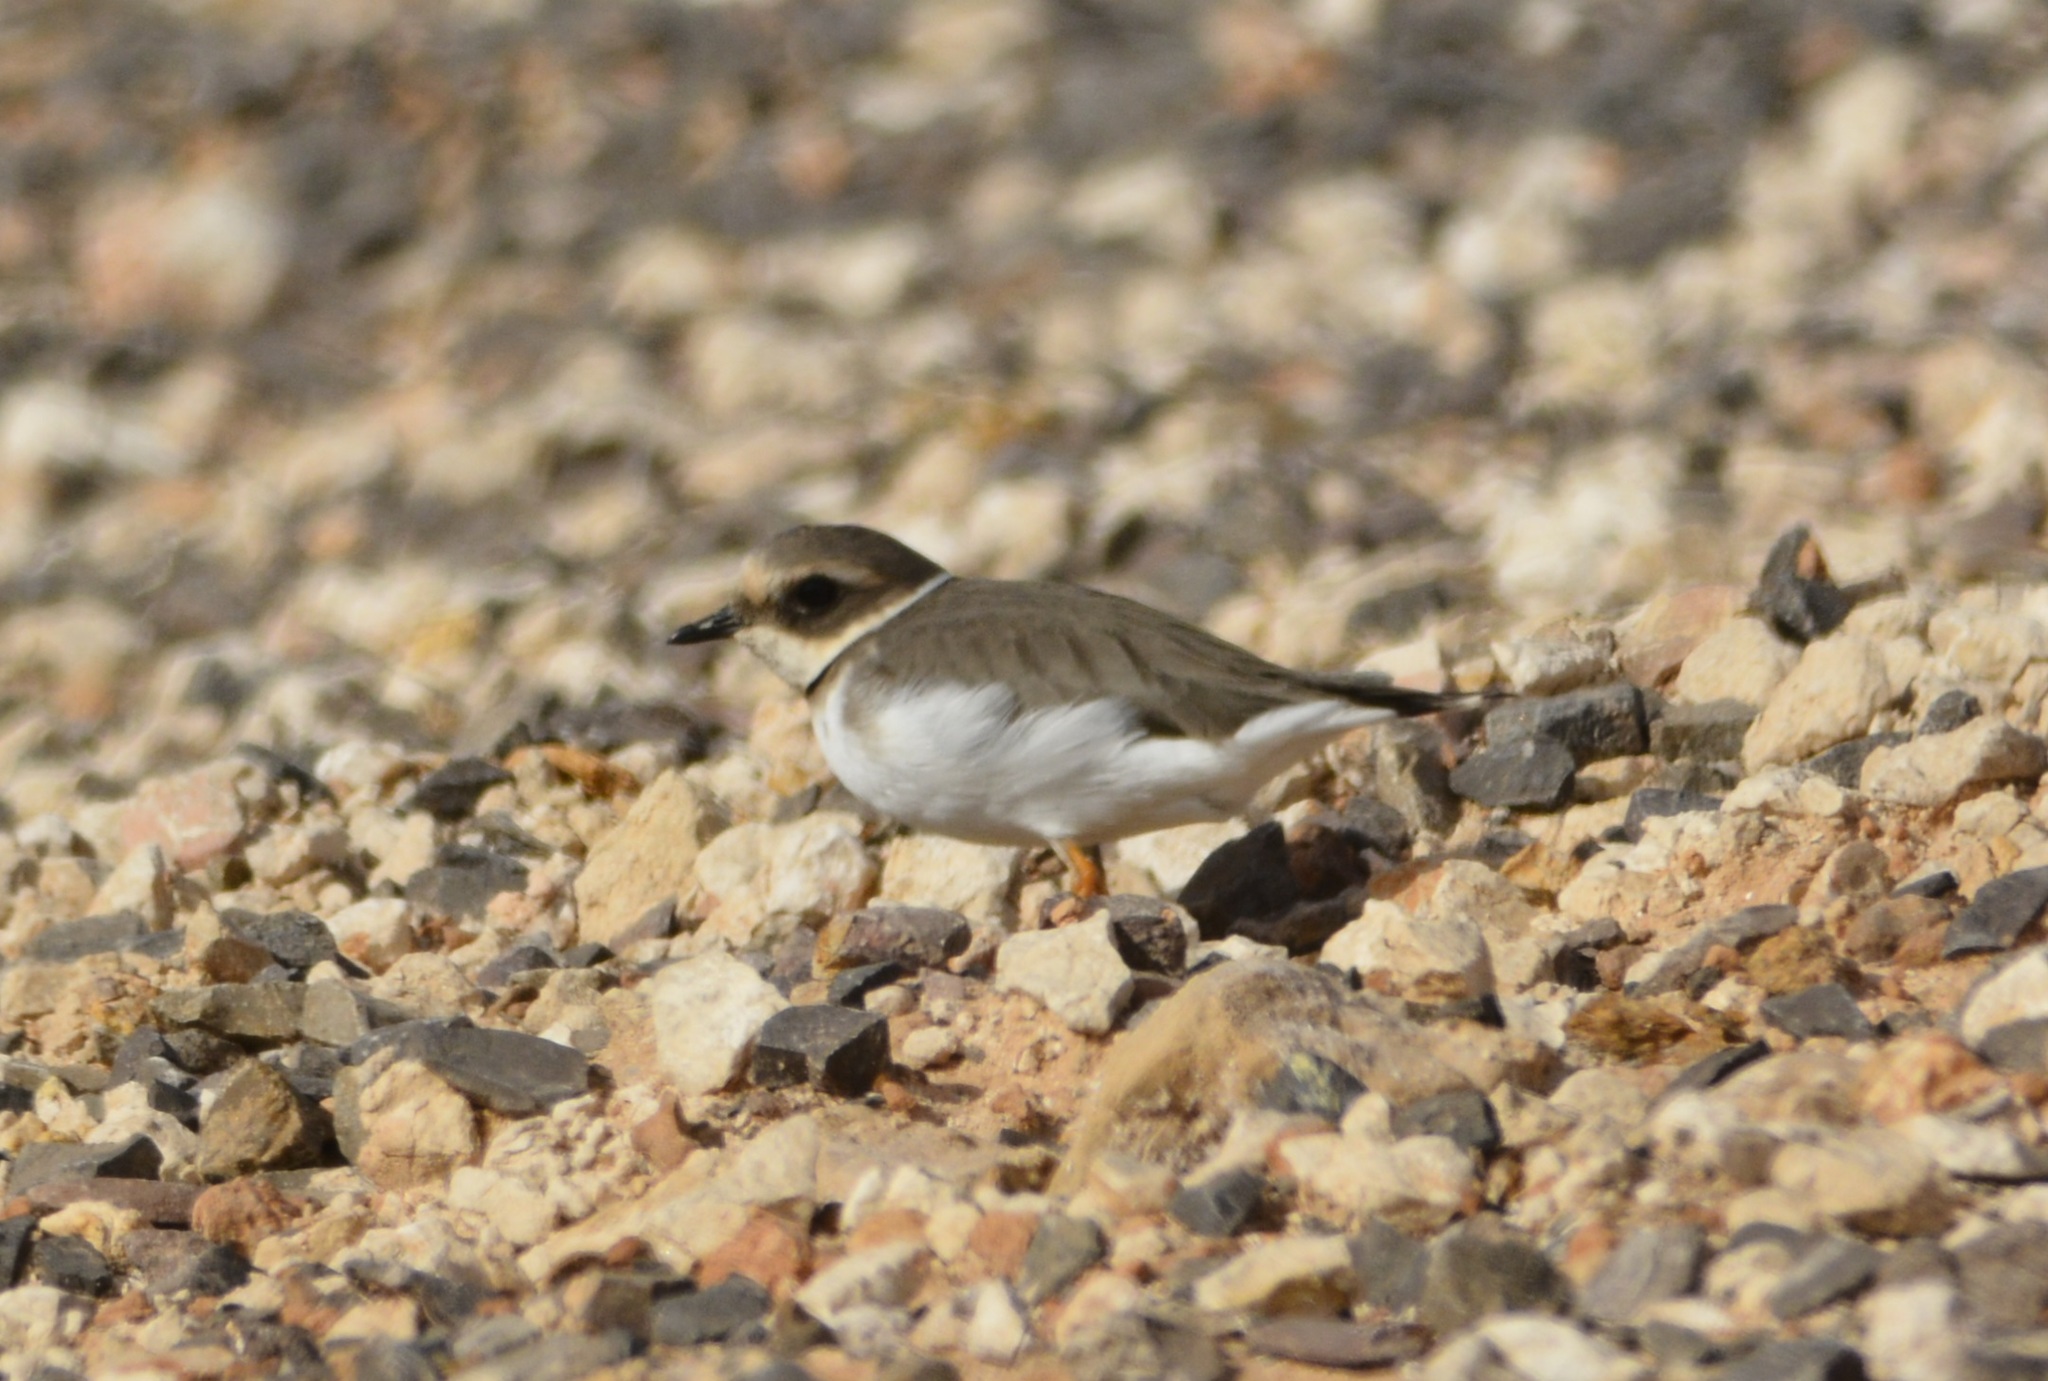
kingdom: Animalia
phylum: Chordata
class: Aves
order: Charadriiformes
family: Charadriidae
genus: Charadrius
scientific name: Charadrius hiaticula
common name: Common ringed plover
